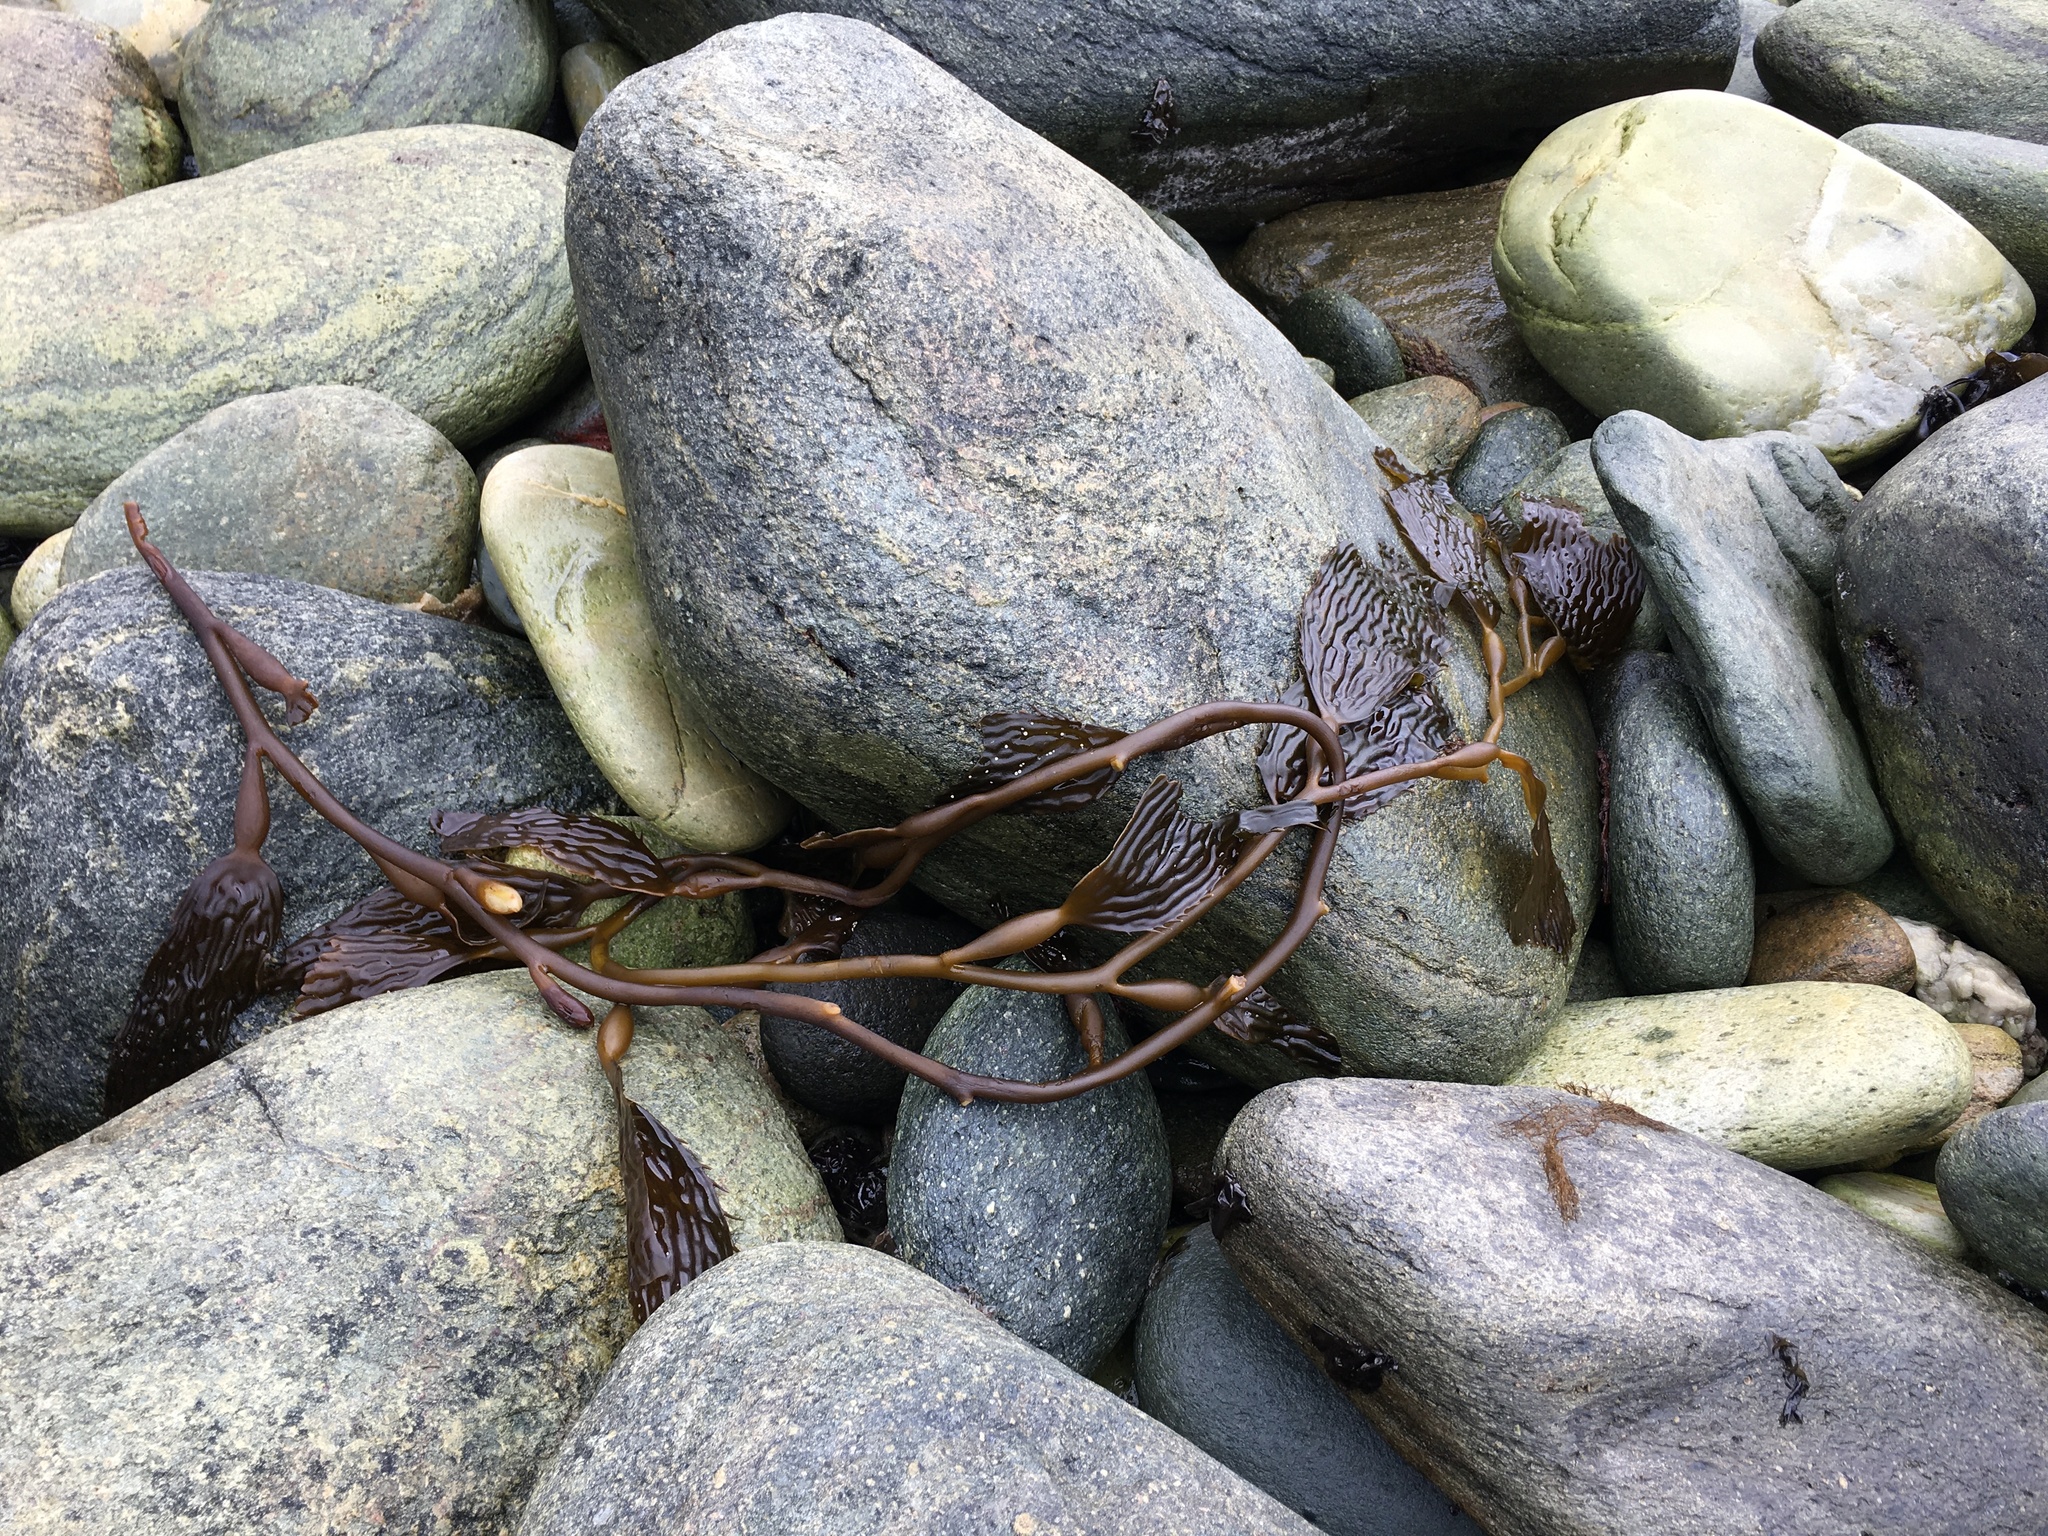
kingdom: Chromista
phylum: Ochrophyta
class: Phaeophyceae
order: Laminariales
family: Laminariaceae
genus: Macrocystis
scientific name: Macrocystis pyrifera
